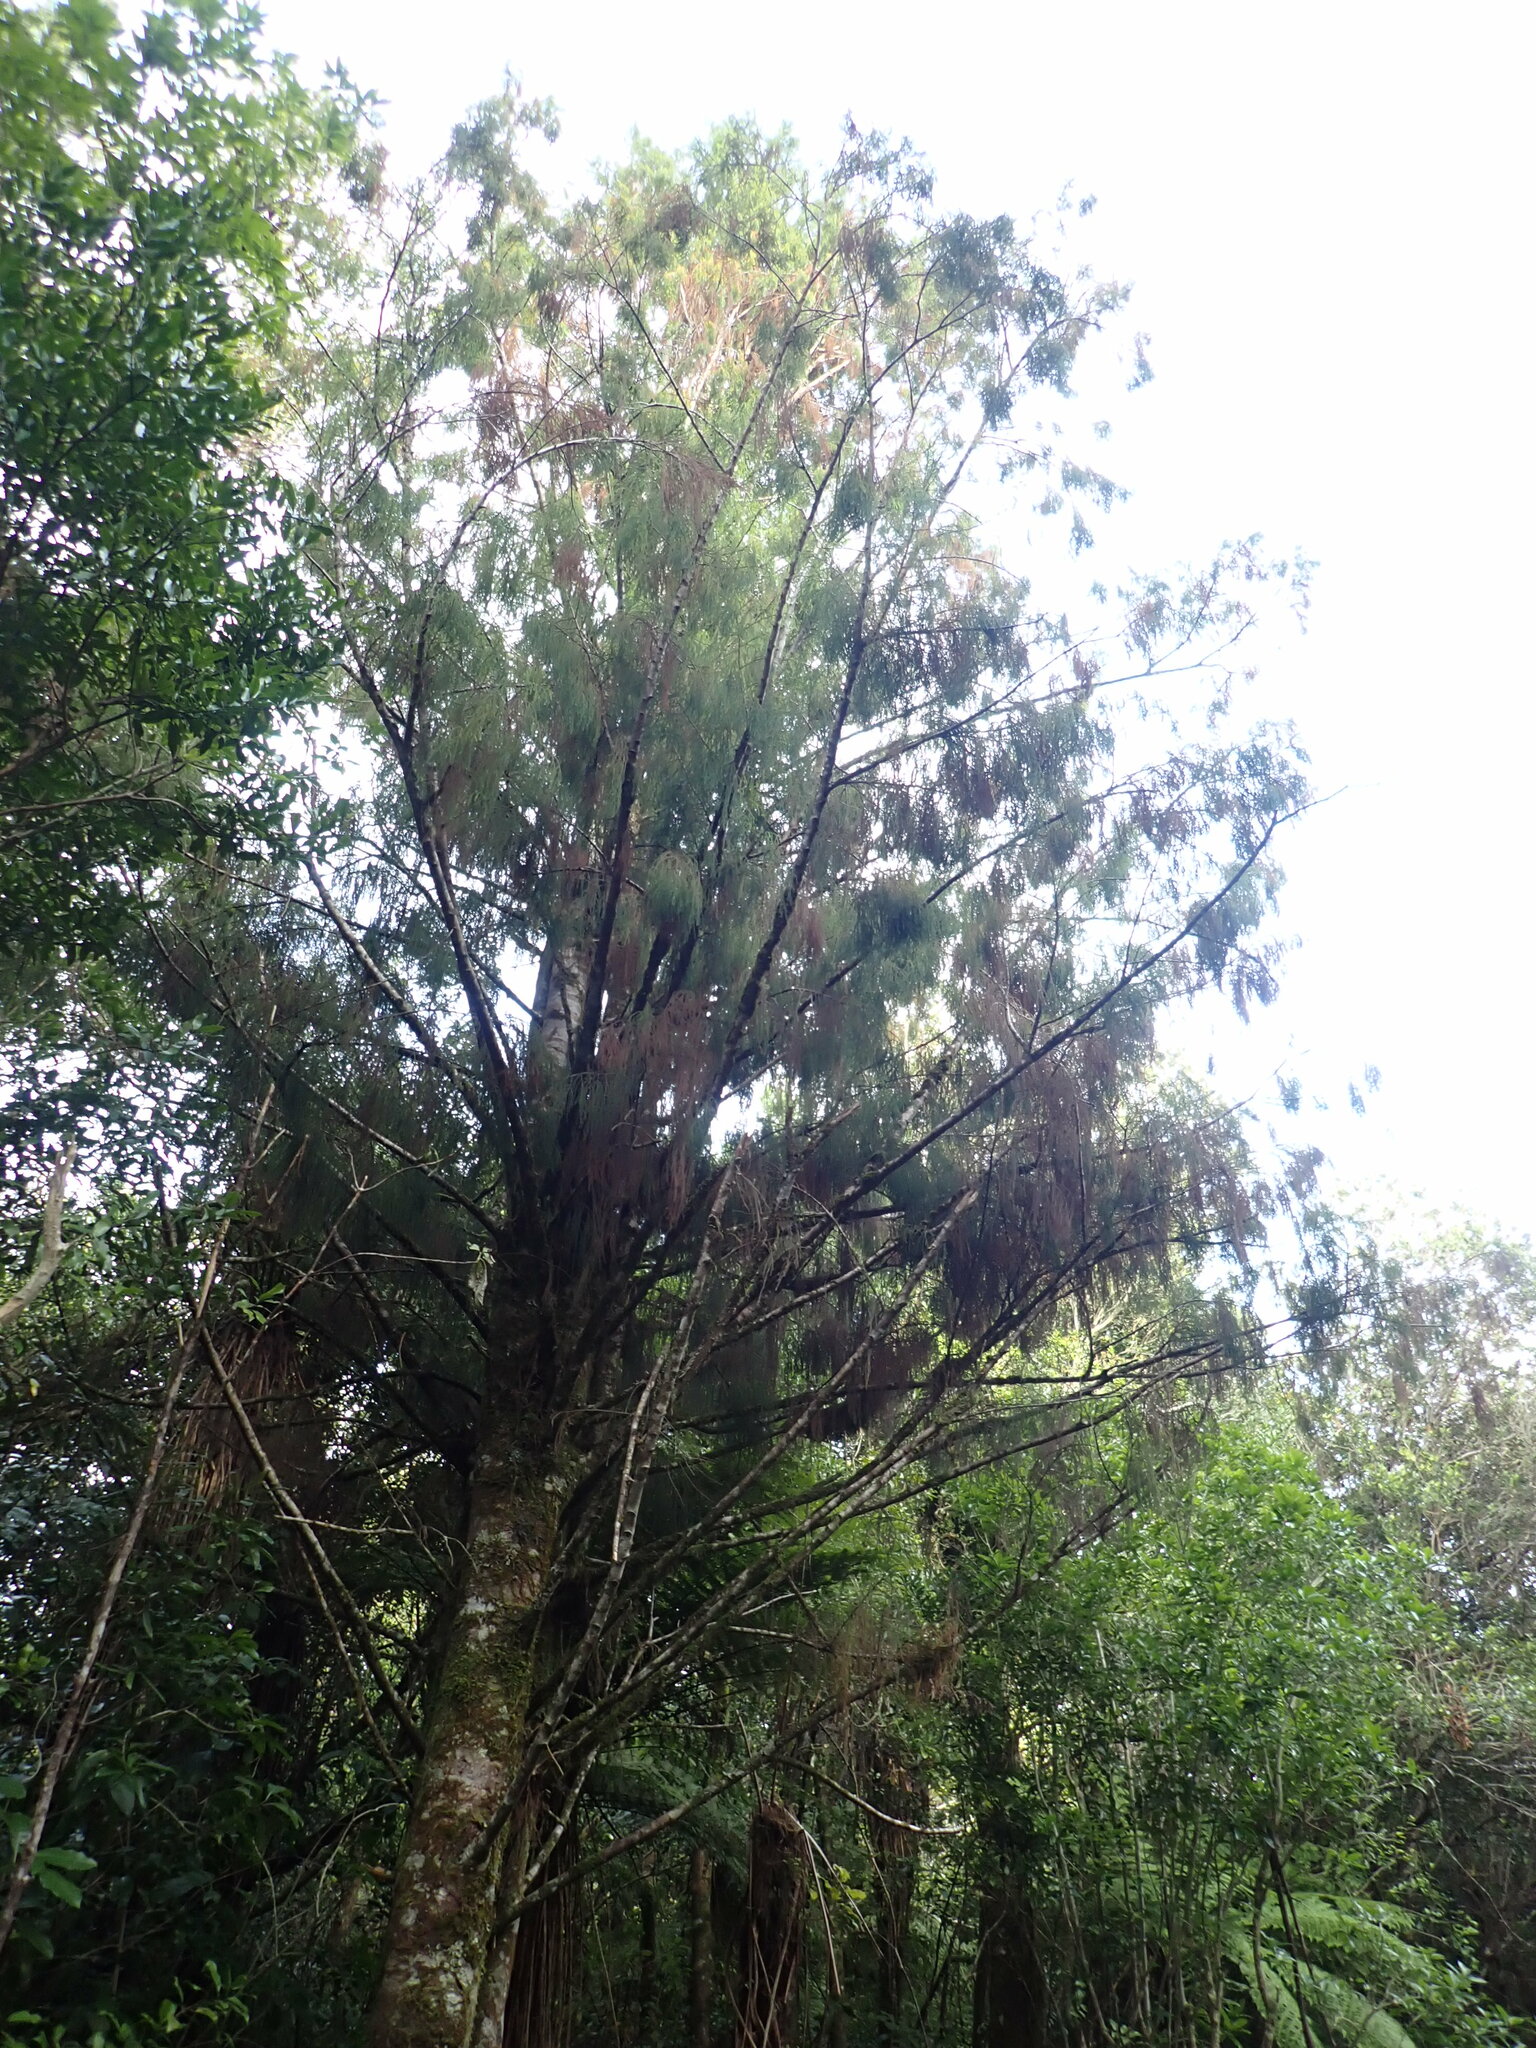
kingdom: Plantae
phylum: Tracheophyta
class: Pinopsida
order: Pinales
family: Podocarpaceae
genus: Dacrydium
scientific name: Dacrydium cupressinum
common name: Red pine
